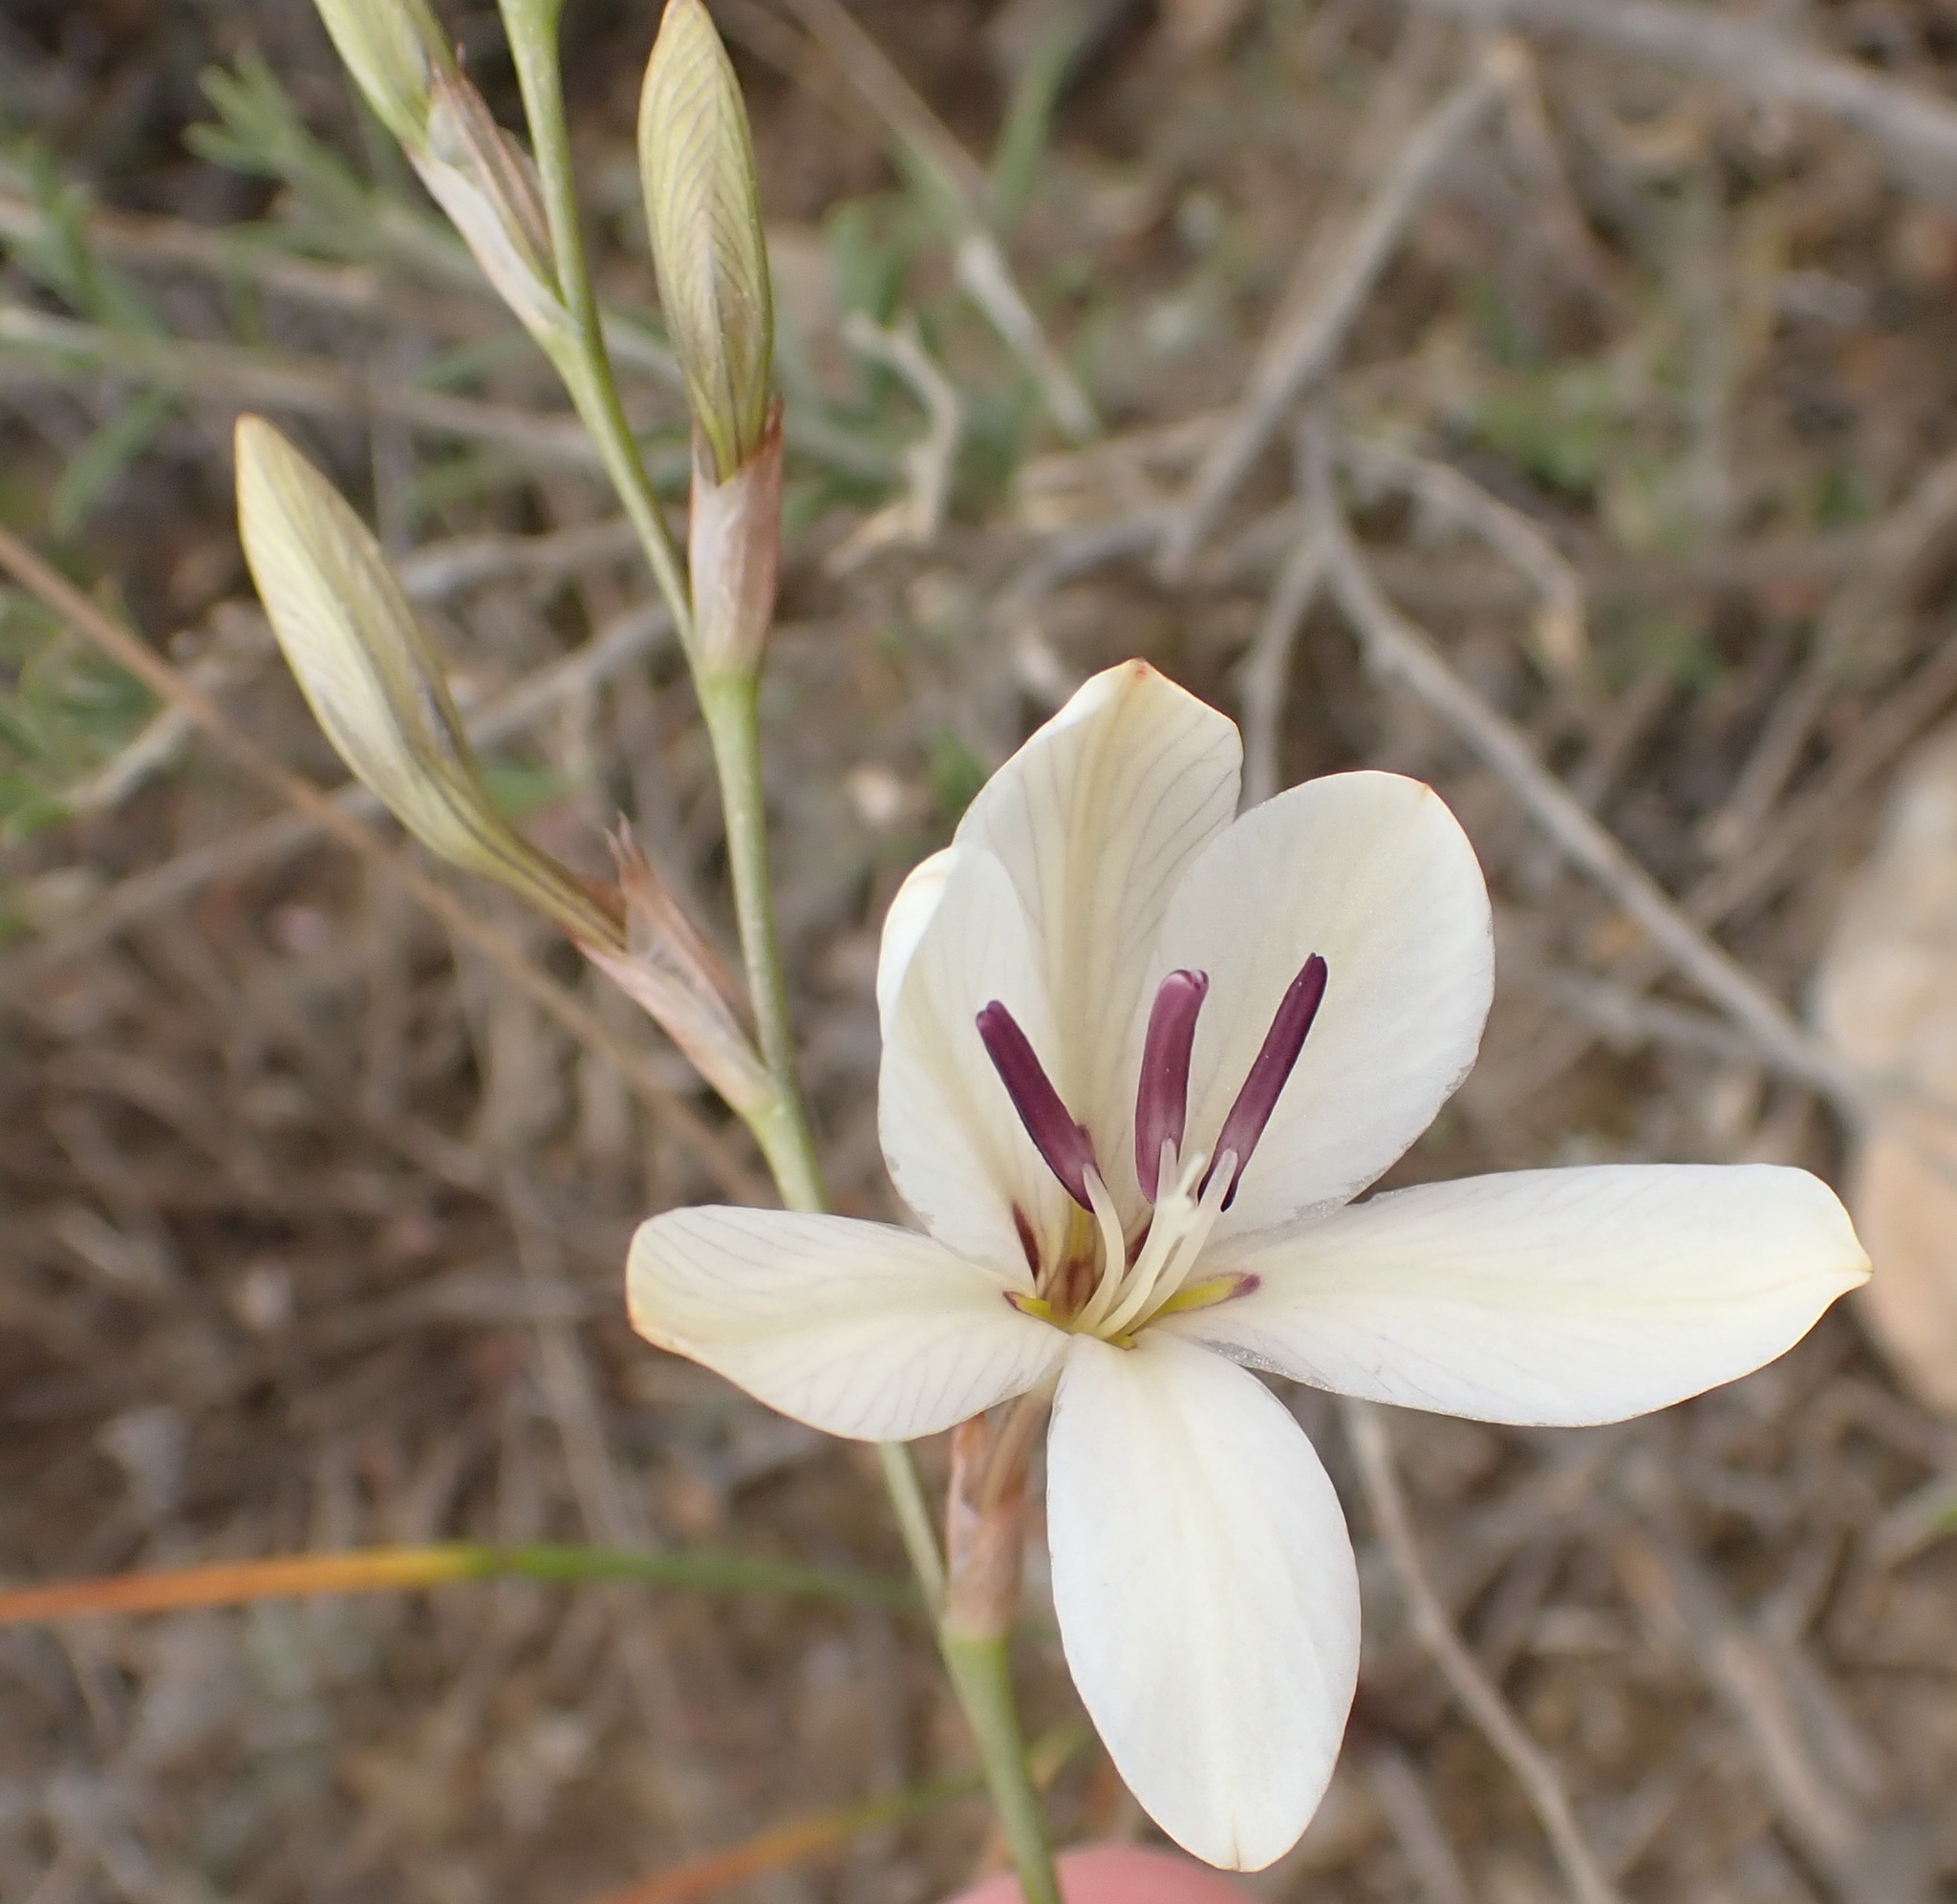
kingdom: Plantae
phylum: Tracheophyta
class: Liliopsida
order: Asparagales
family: Iridaceae
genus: Tritonia
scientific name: Tritonia bakeri
